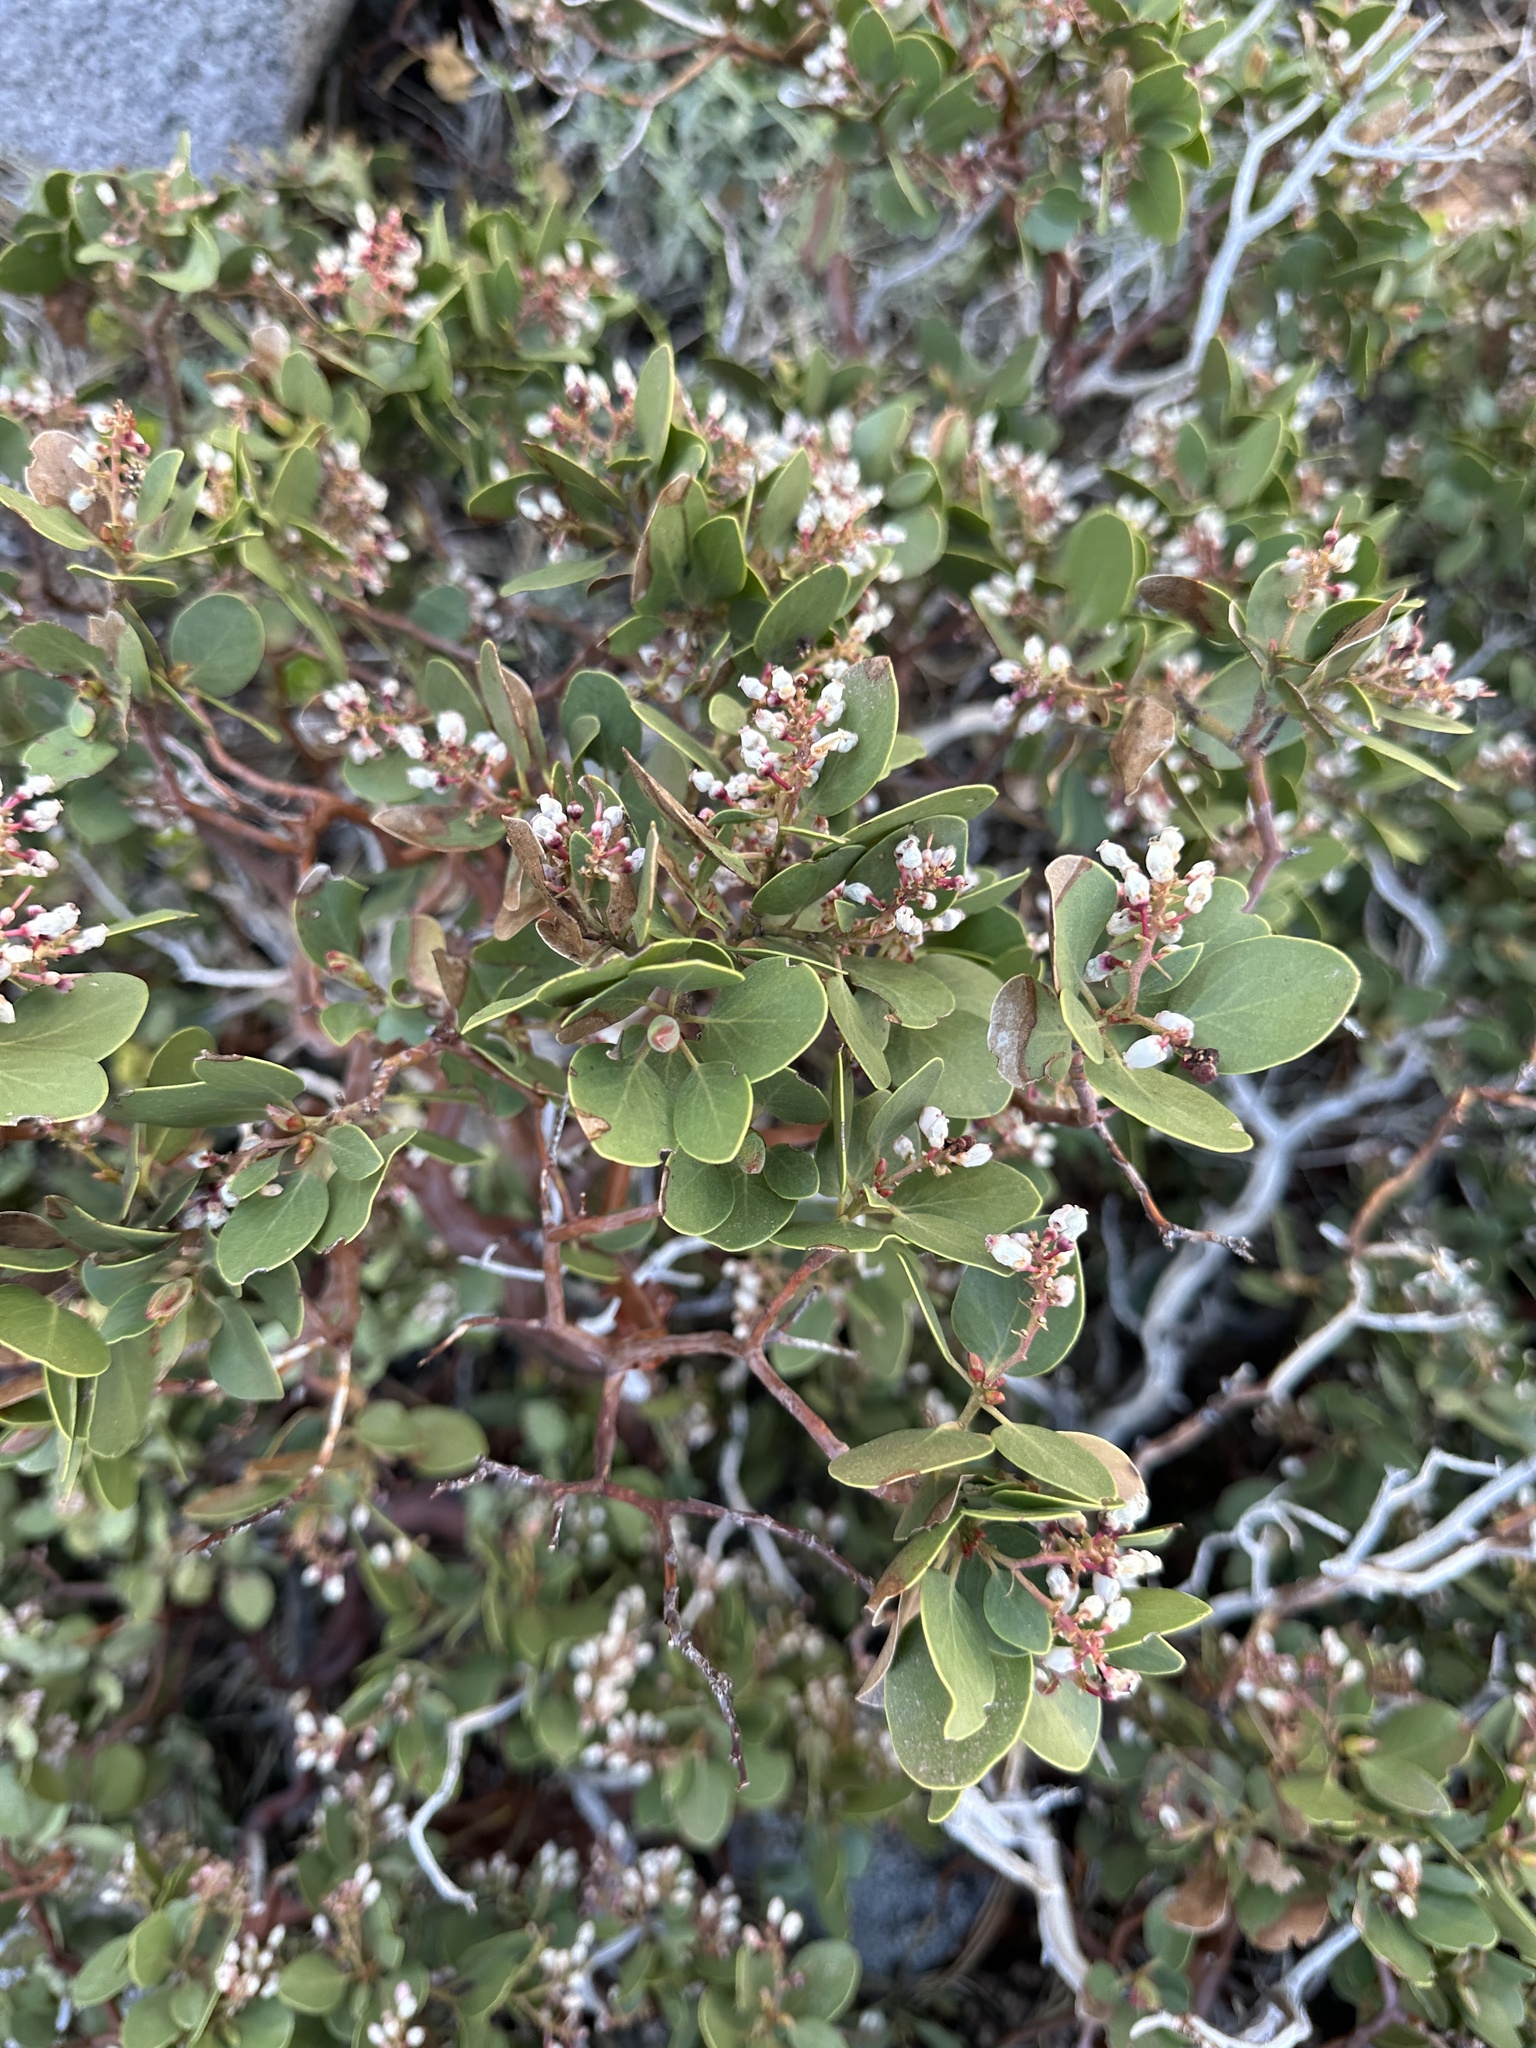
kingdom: Plantae
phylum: Tracheophyta
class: Magnoliopsida
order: Ericales
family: Ericaceae
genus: Arctostaphylos
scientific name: Arctostaphylos patula
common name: Green-leaf manzanita
